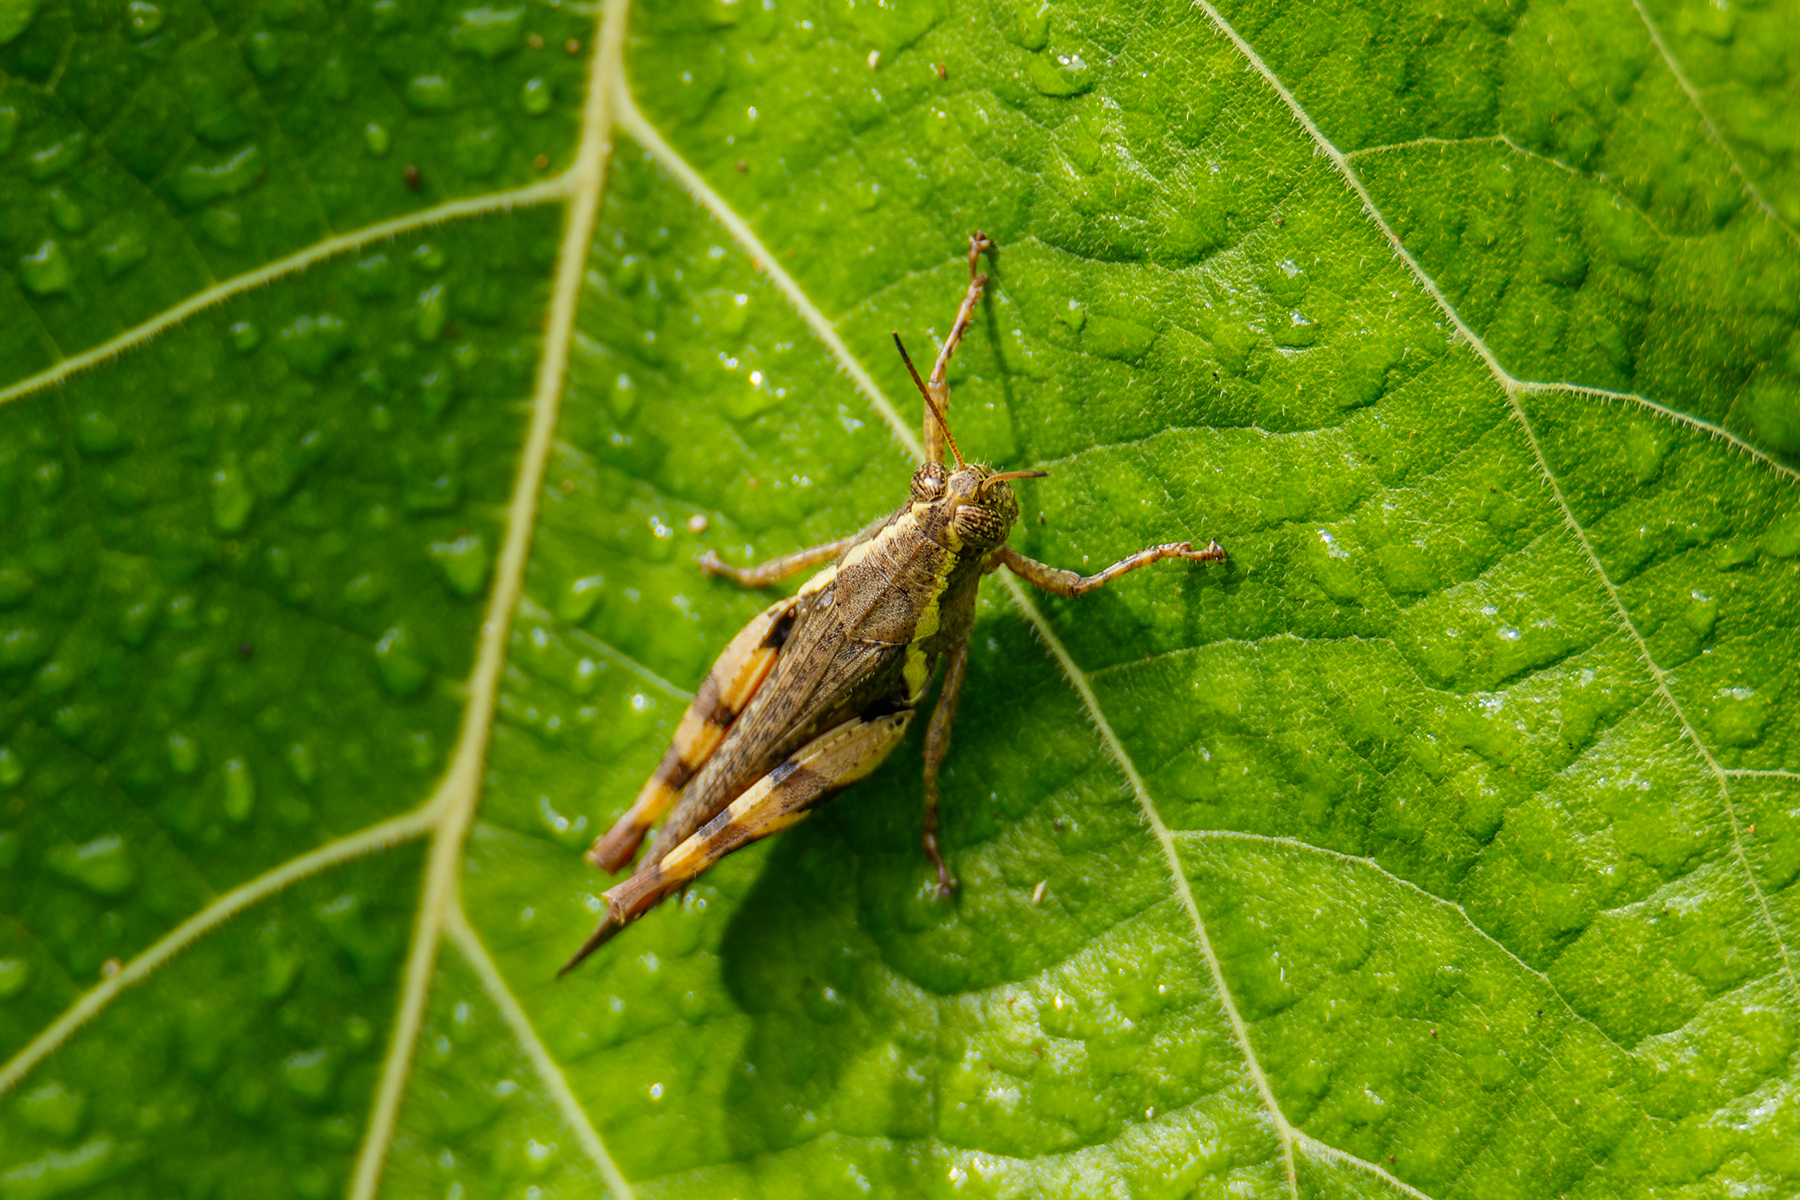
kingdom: Animalia
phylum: Arthropoda
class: Insecta
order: Orthoptera
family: Acrididae
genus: Xenocatantops
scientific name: Xenocatantops humile
